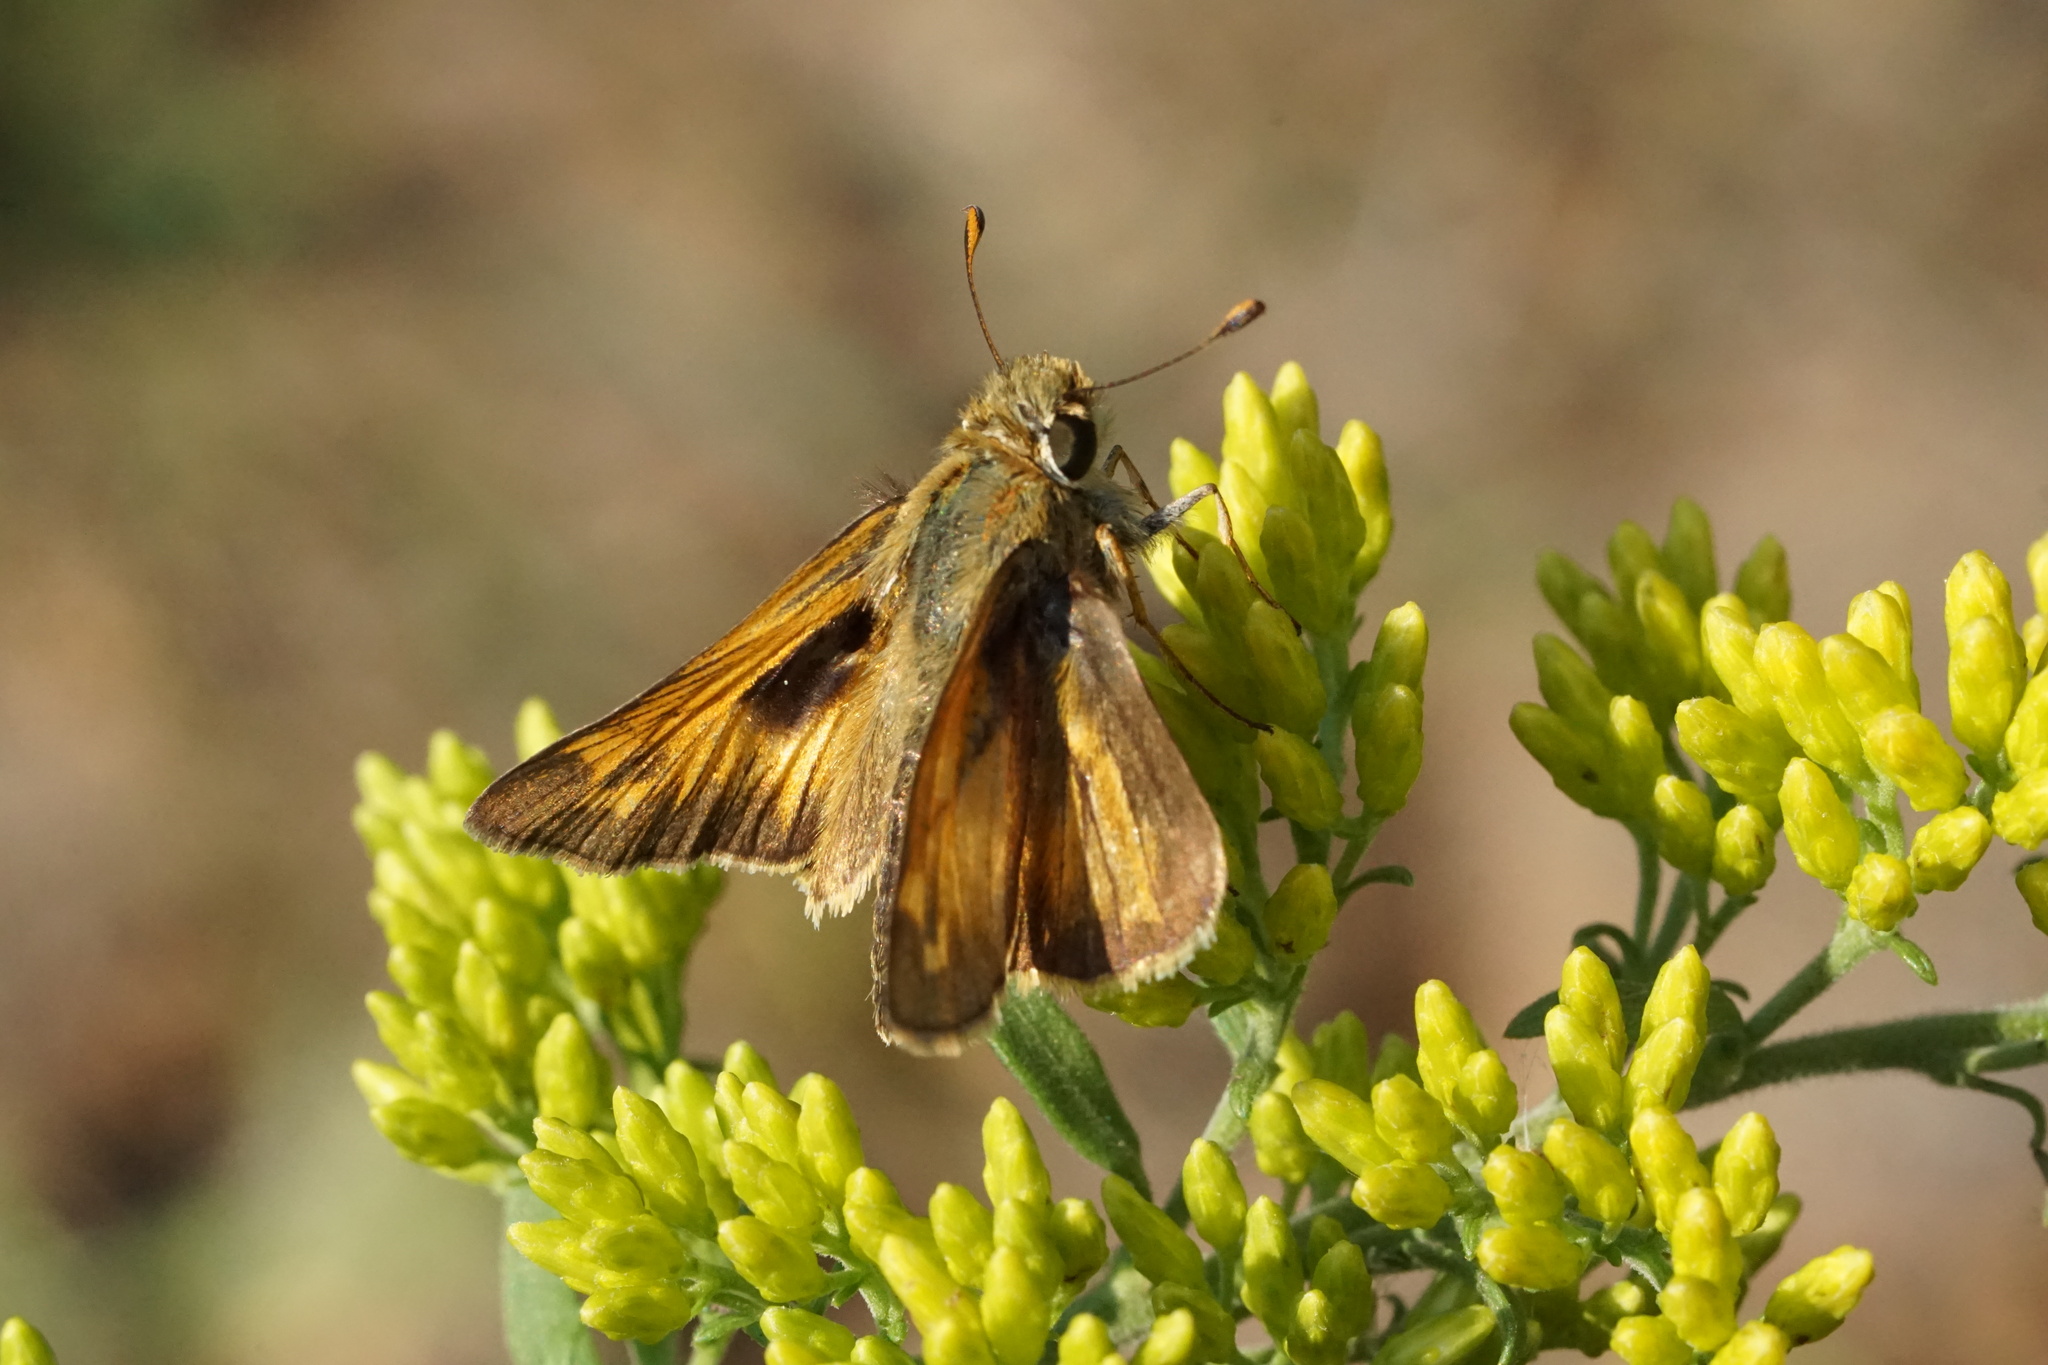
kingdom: Animalia
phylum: Arthropoda
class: Insecta
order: Lepidoptera
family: Hesperiidae
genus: Atalopedes
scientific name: Atalopedes
